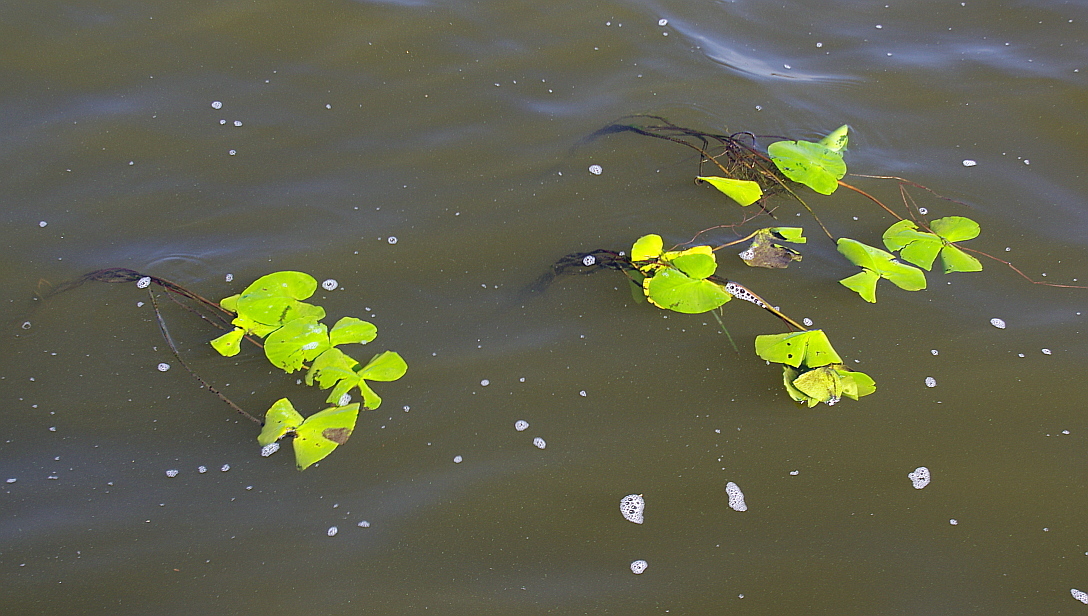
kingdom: Plantae
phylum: Tracheophyta
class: Magnoliopsida
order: Nymphaeales
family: Nymphaeaceae
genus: Nuphar
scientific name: Nuphar lutea
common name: Yellow water-lily
